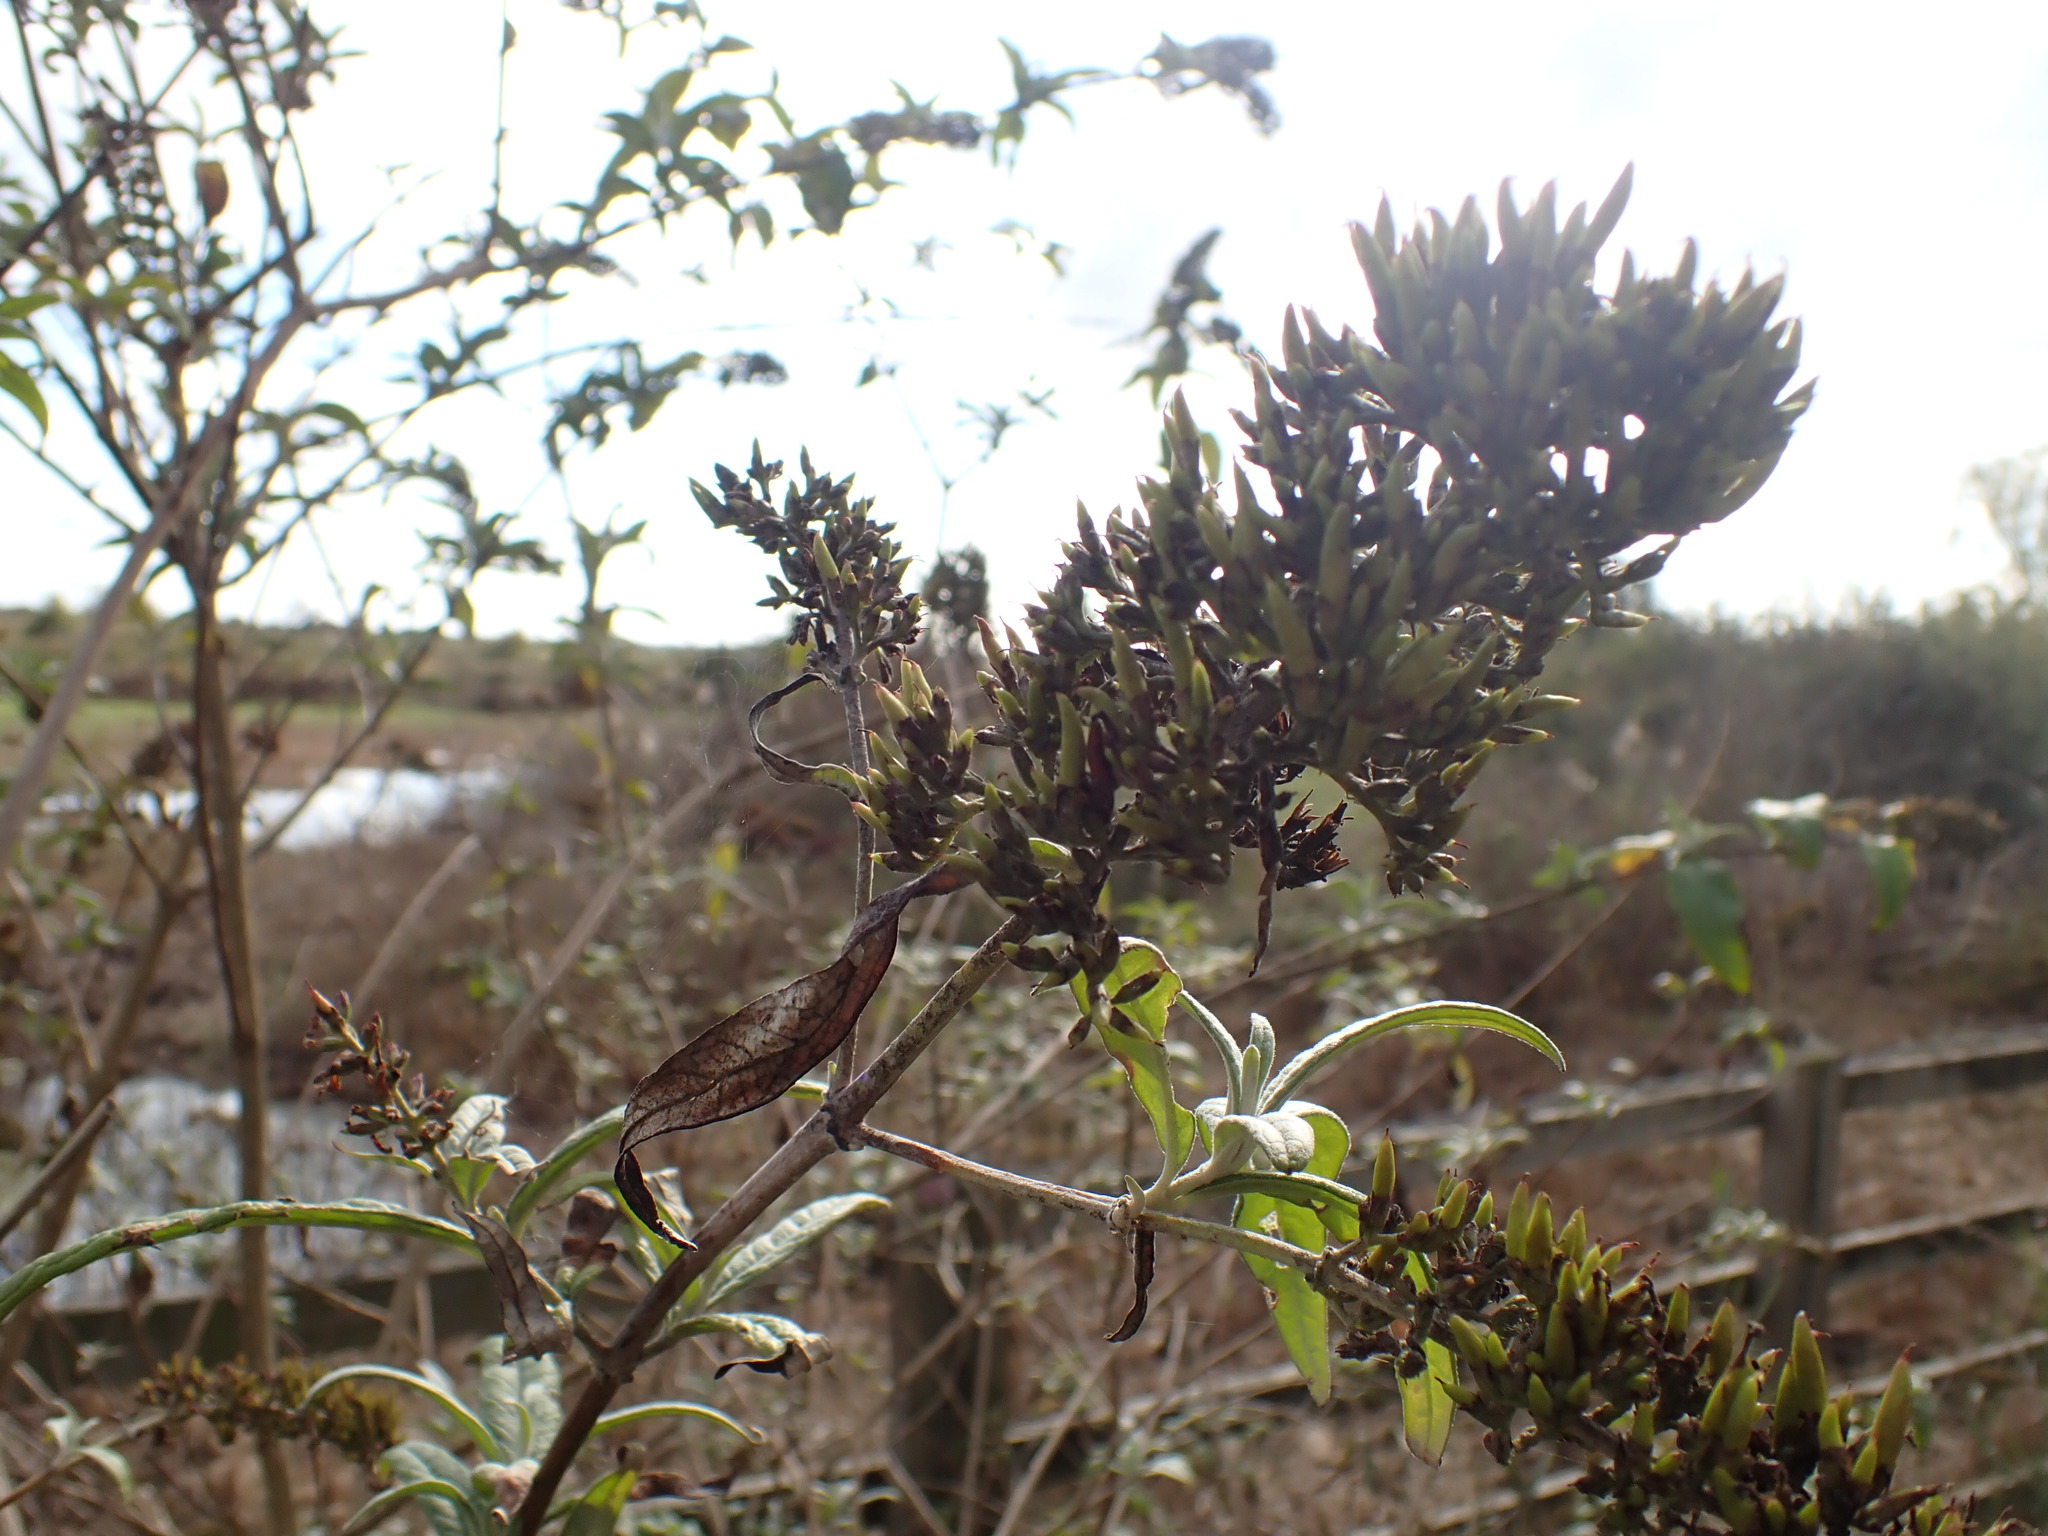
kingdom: Plantae
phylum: Tracheophyta
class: Magnoliopsida
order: Lamiales
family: Scrophulariaceae
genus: Buddleja
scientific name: Buddleja davidii
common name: Butterfly-bush
